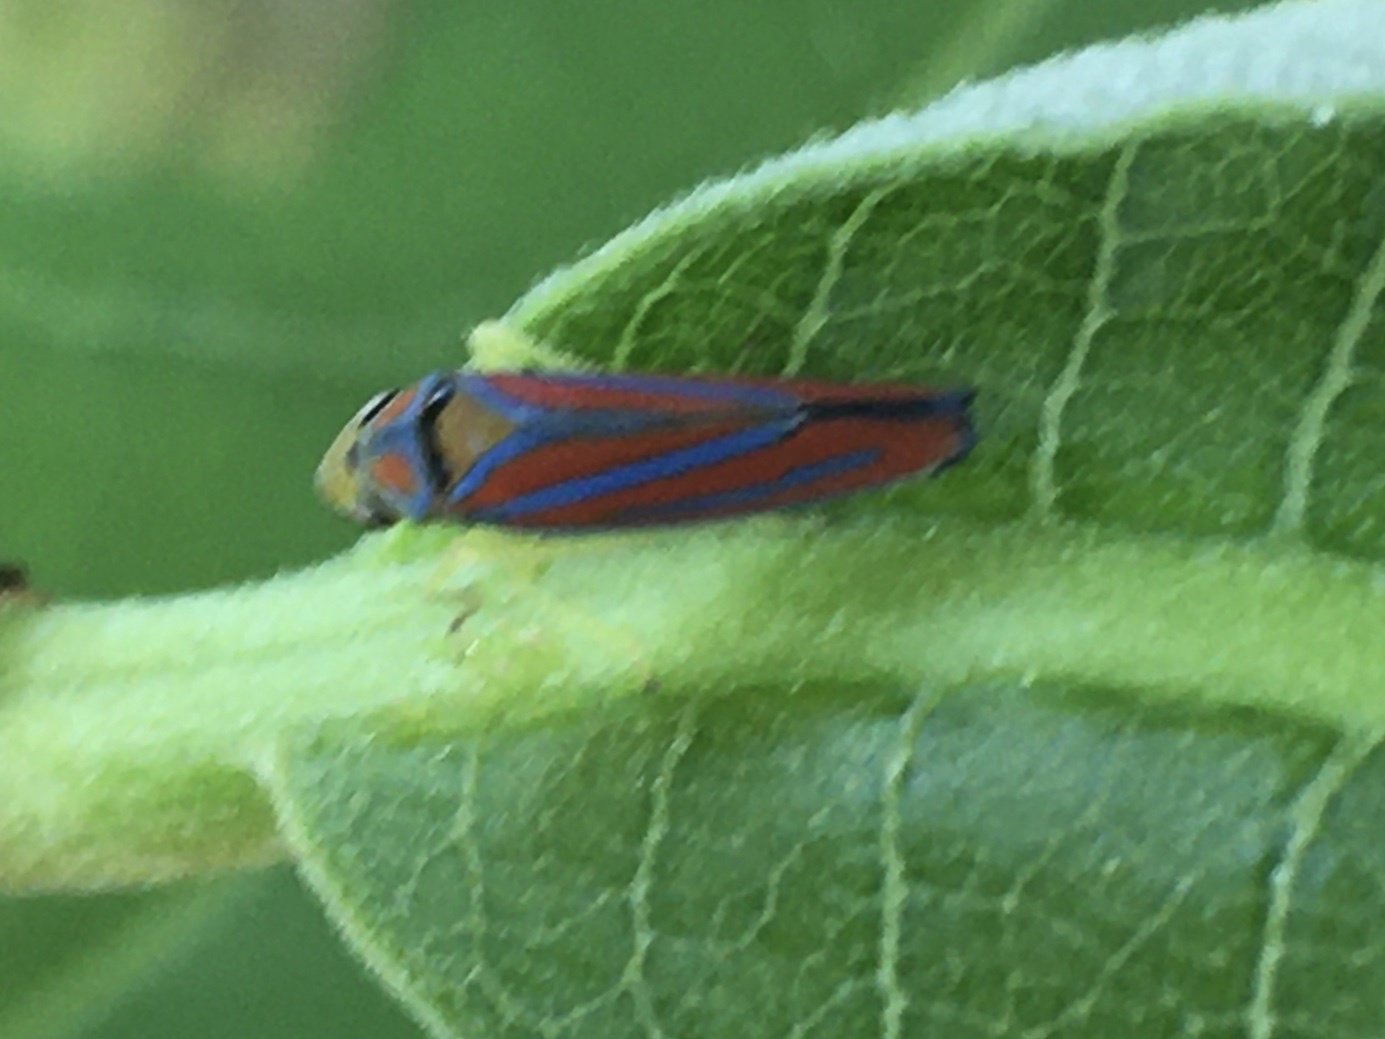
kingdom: Animalia
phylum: Arthropoda
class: Insecta
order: Hemiptera
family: Cicadellidae
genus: Graphocephala
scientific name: Graphocephala coccinea
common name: Candy-striped leafhopper
